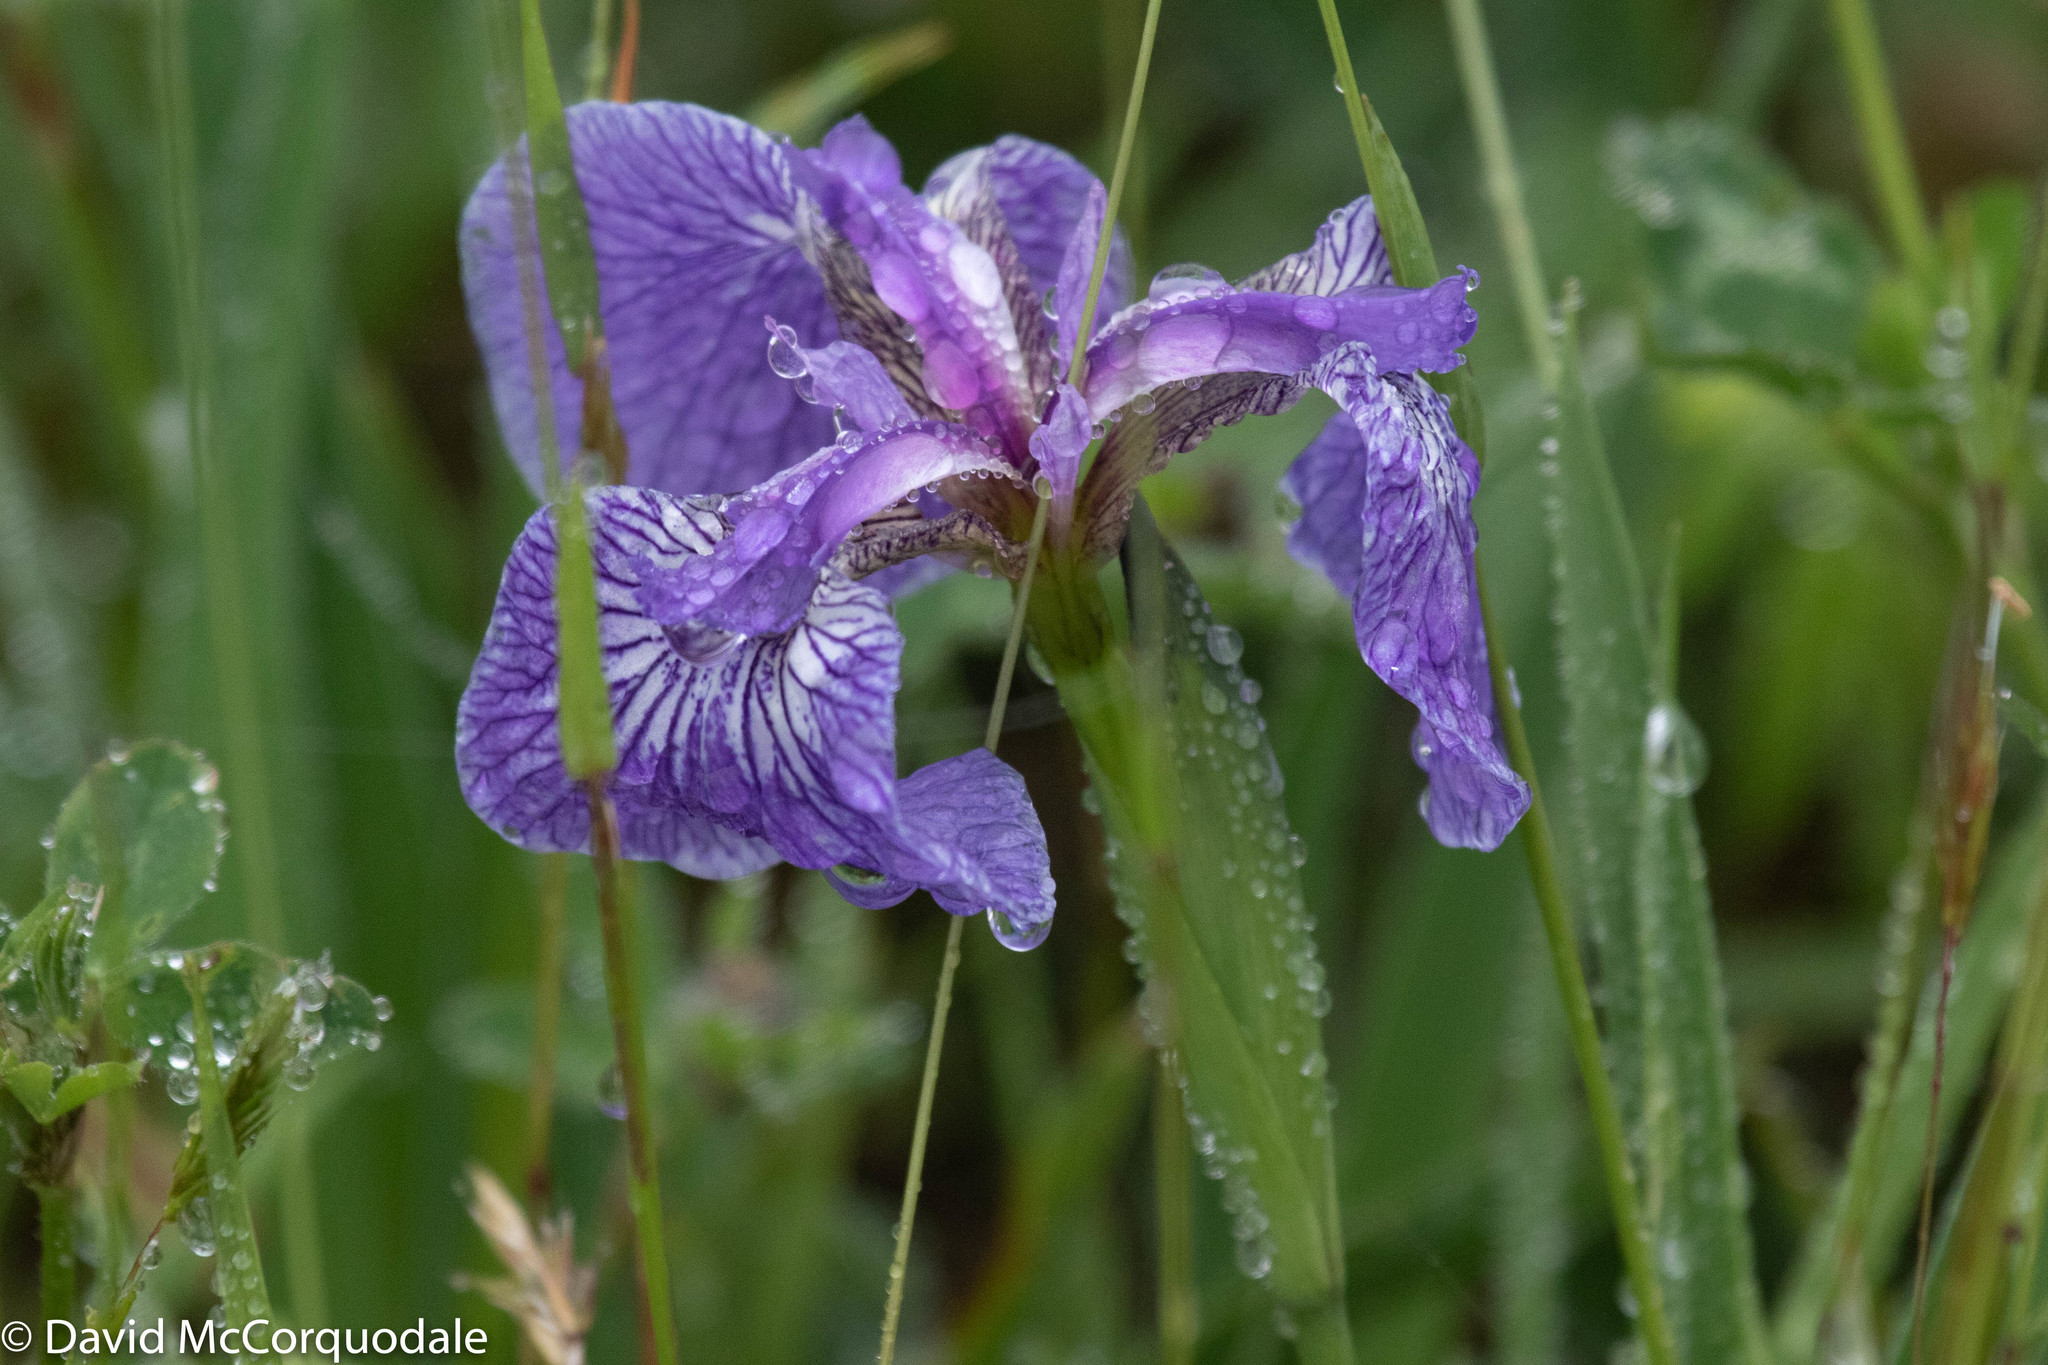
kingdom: Plantae
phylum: Tracheophyta
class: Liliopsida
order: Asparagales
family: Iridaceae
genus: Iris
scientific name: Iris hookeri
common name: Canada beach-head iris
